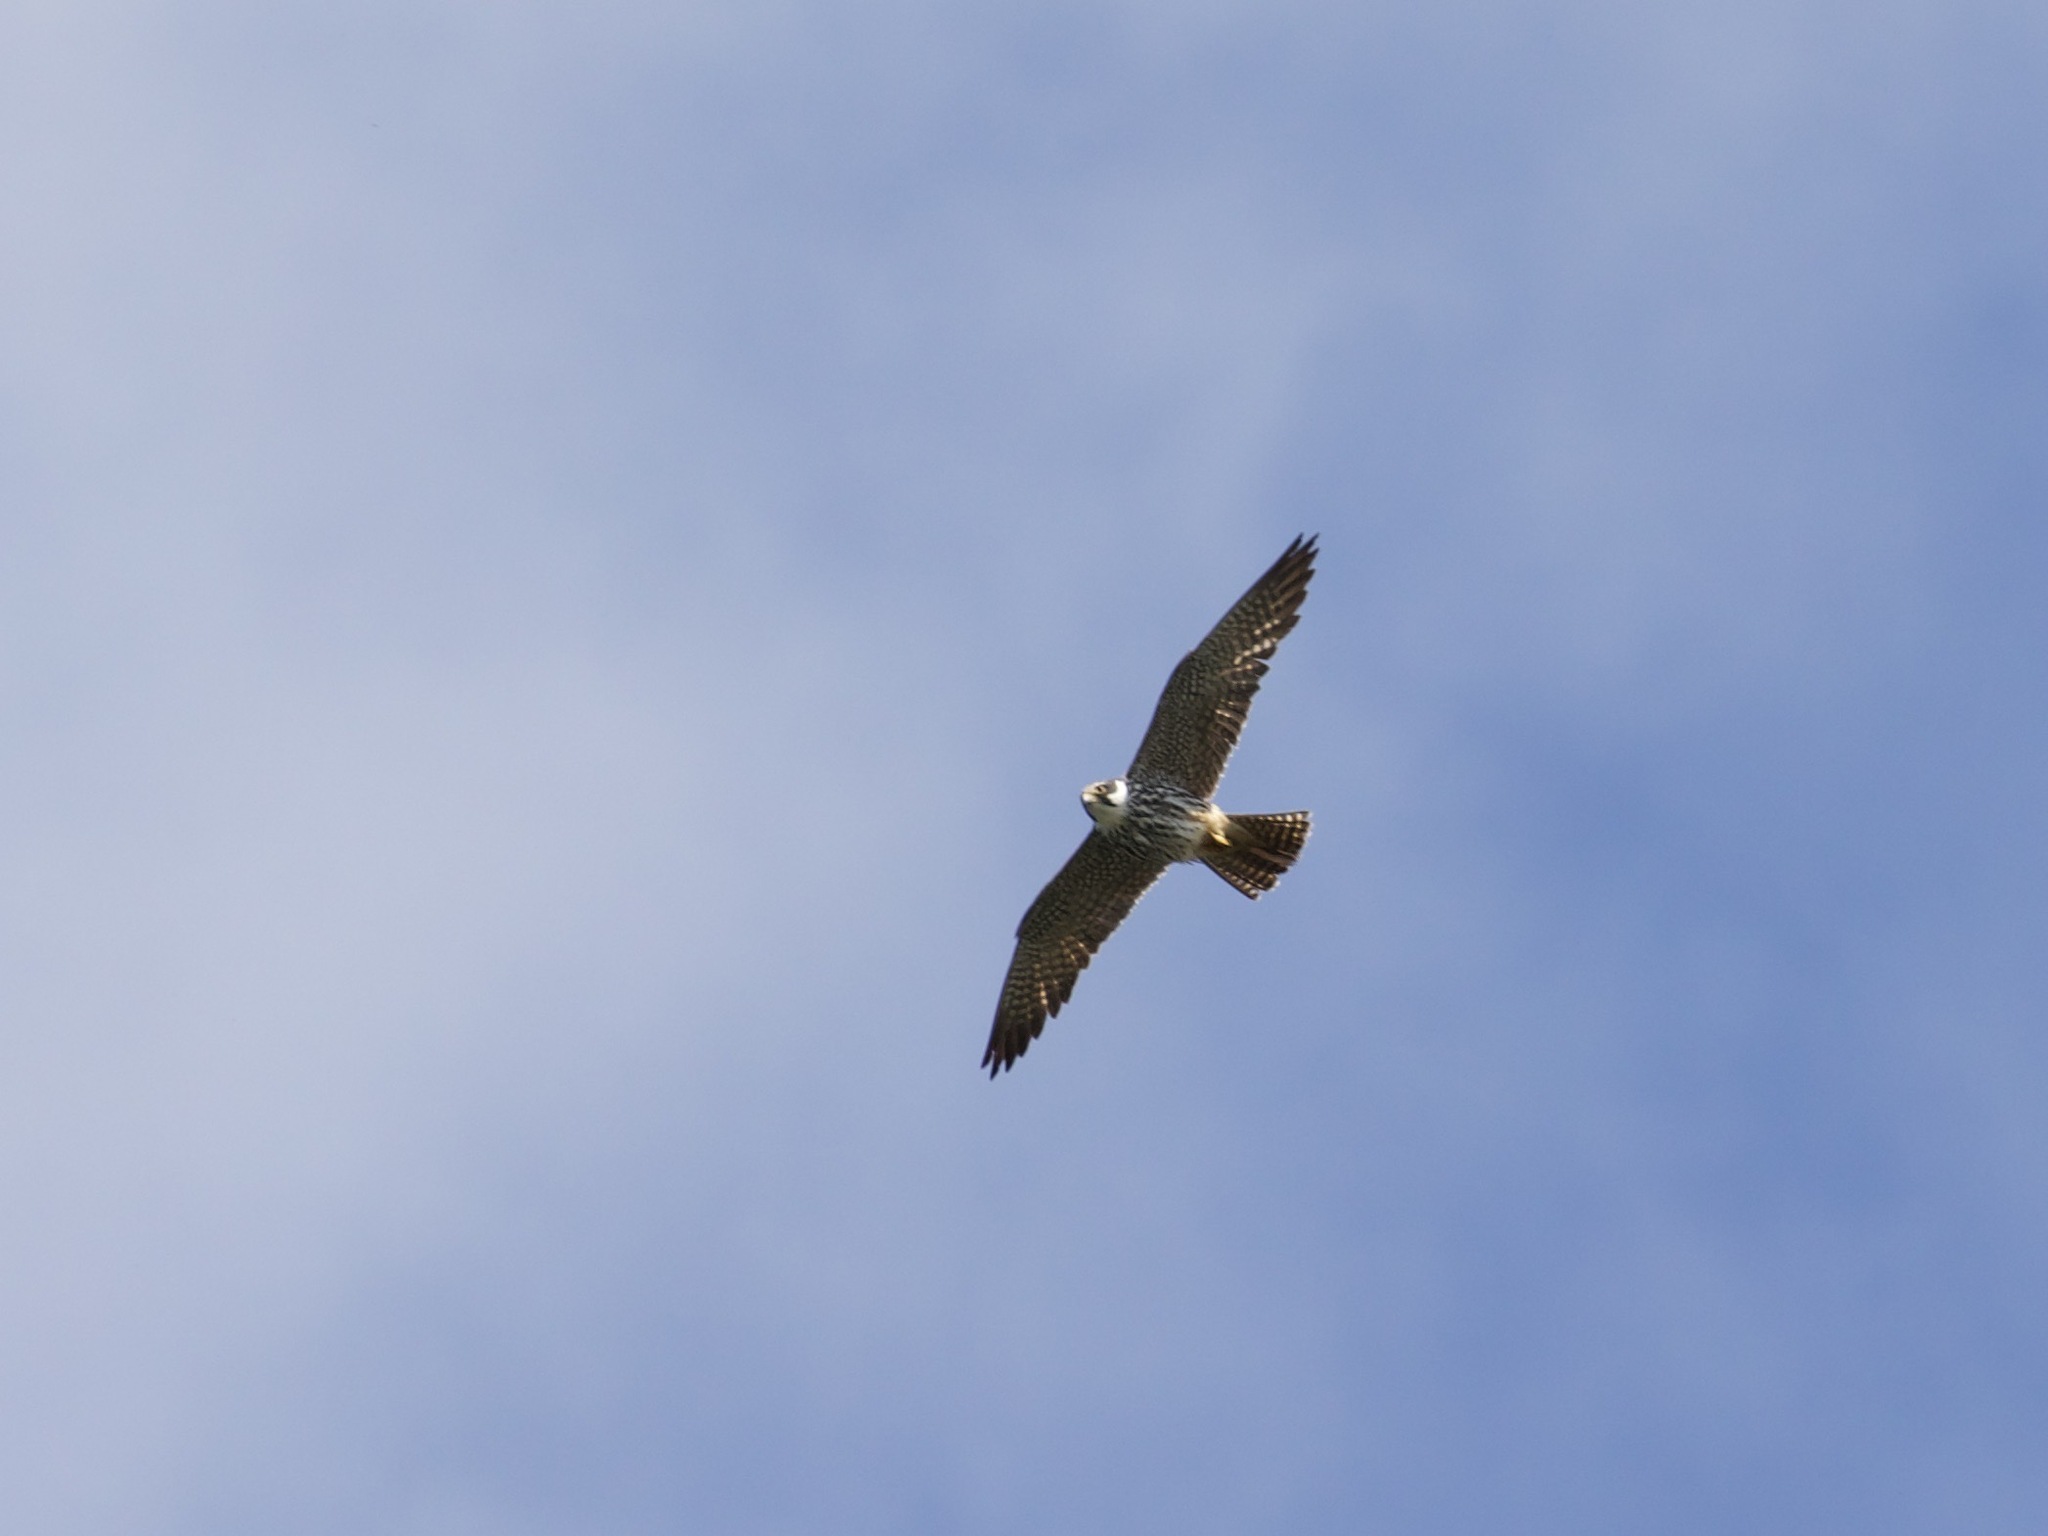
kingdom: Animalia
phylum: Chordata
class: Aves
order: Falconiformes
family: Falconidae
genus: Falco
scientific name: Falco subbuteo
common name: Eurasian hobby
